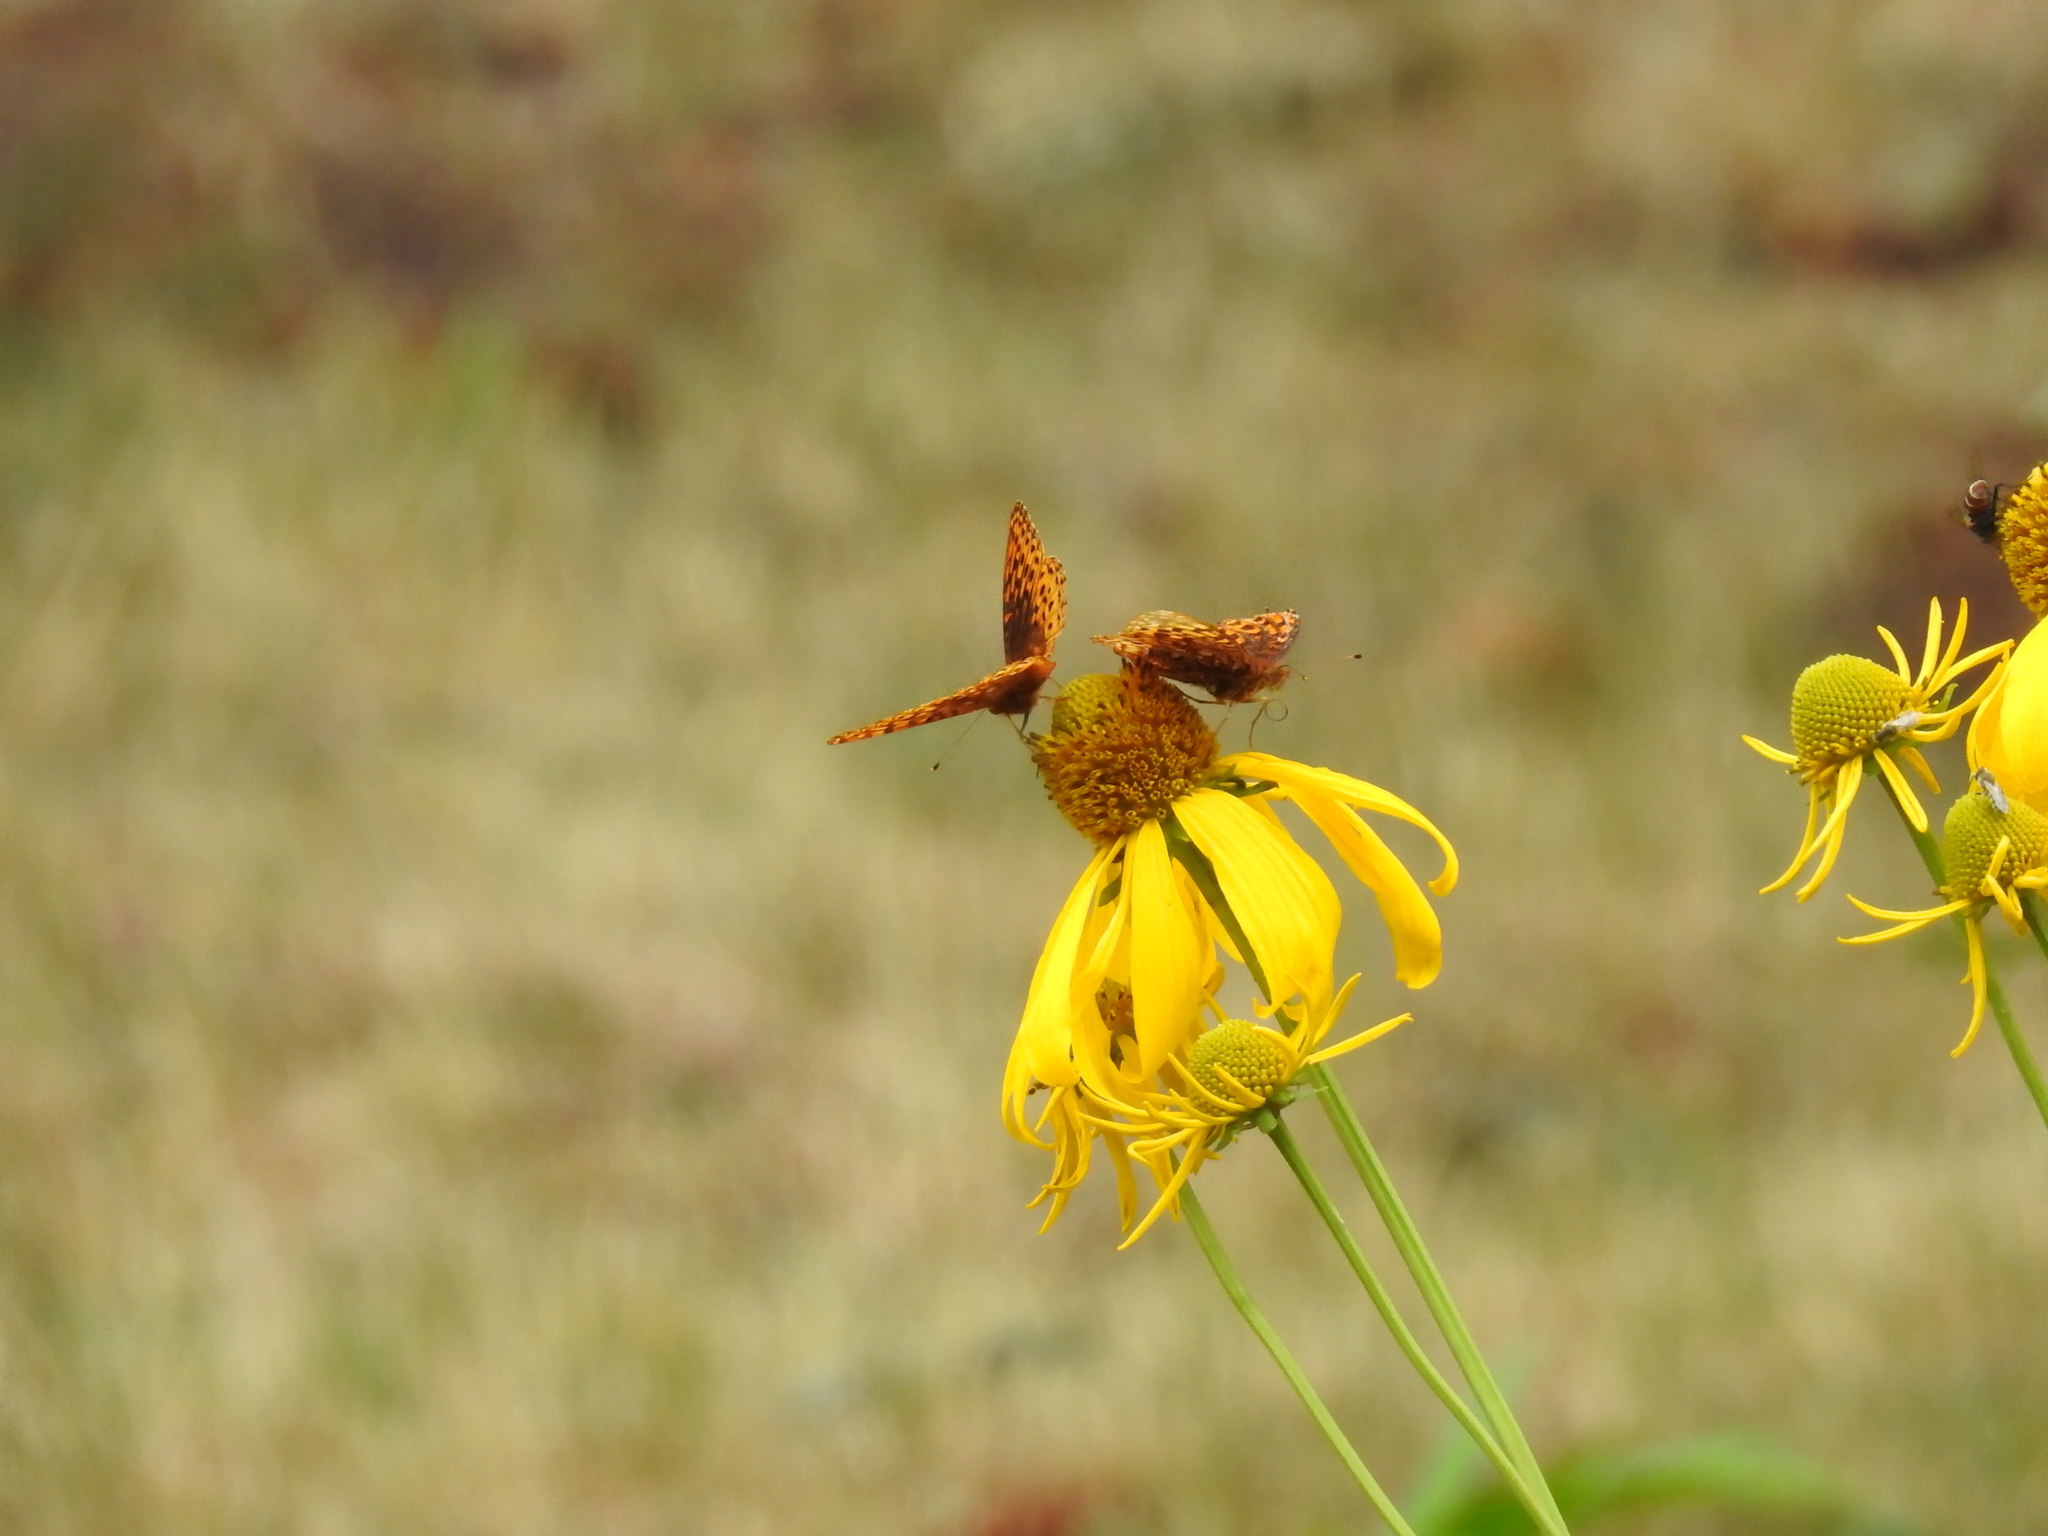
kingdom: Animalia
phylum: Arthropoda
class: Insecta
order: Lepidoptera
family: Nymphalidae
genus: Speyeria
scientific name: Speyeria atlantis
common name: Atlantis fritillary
